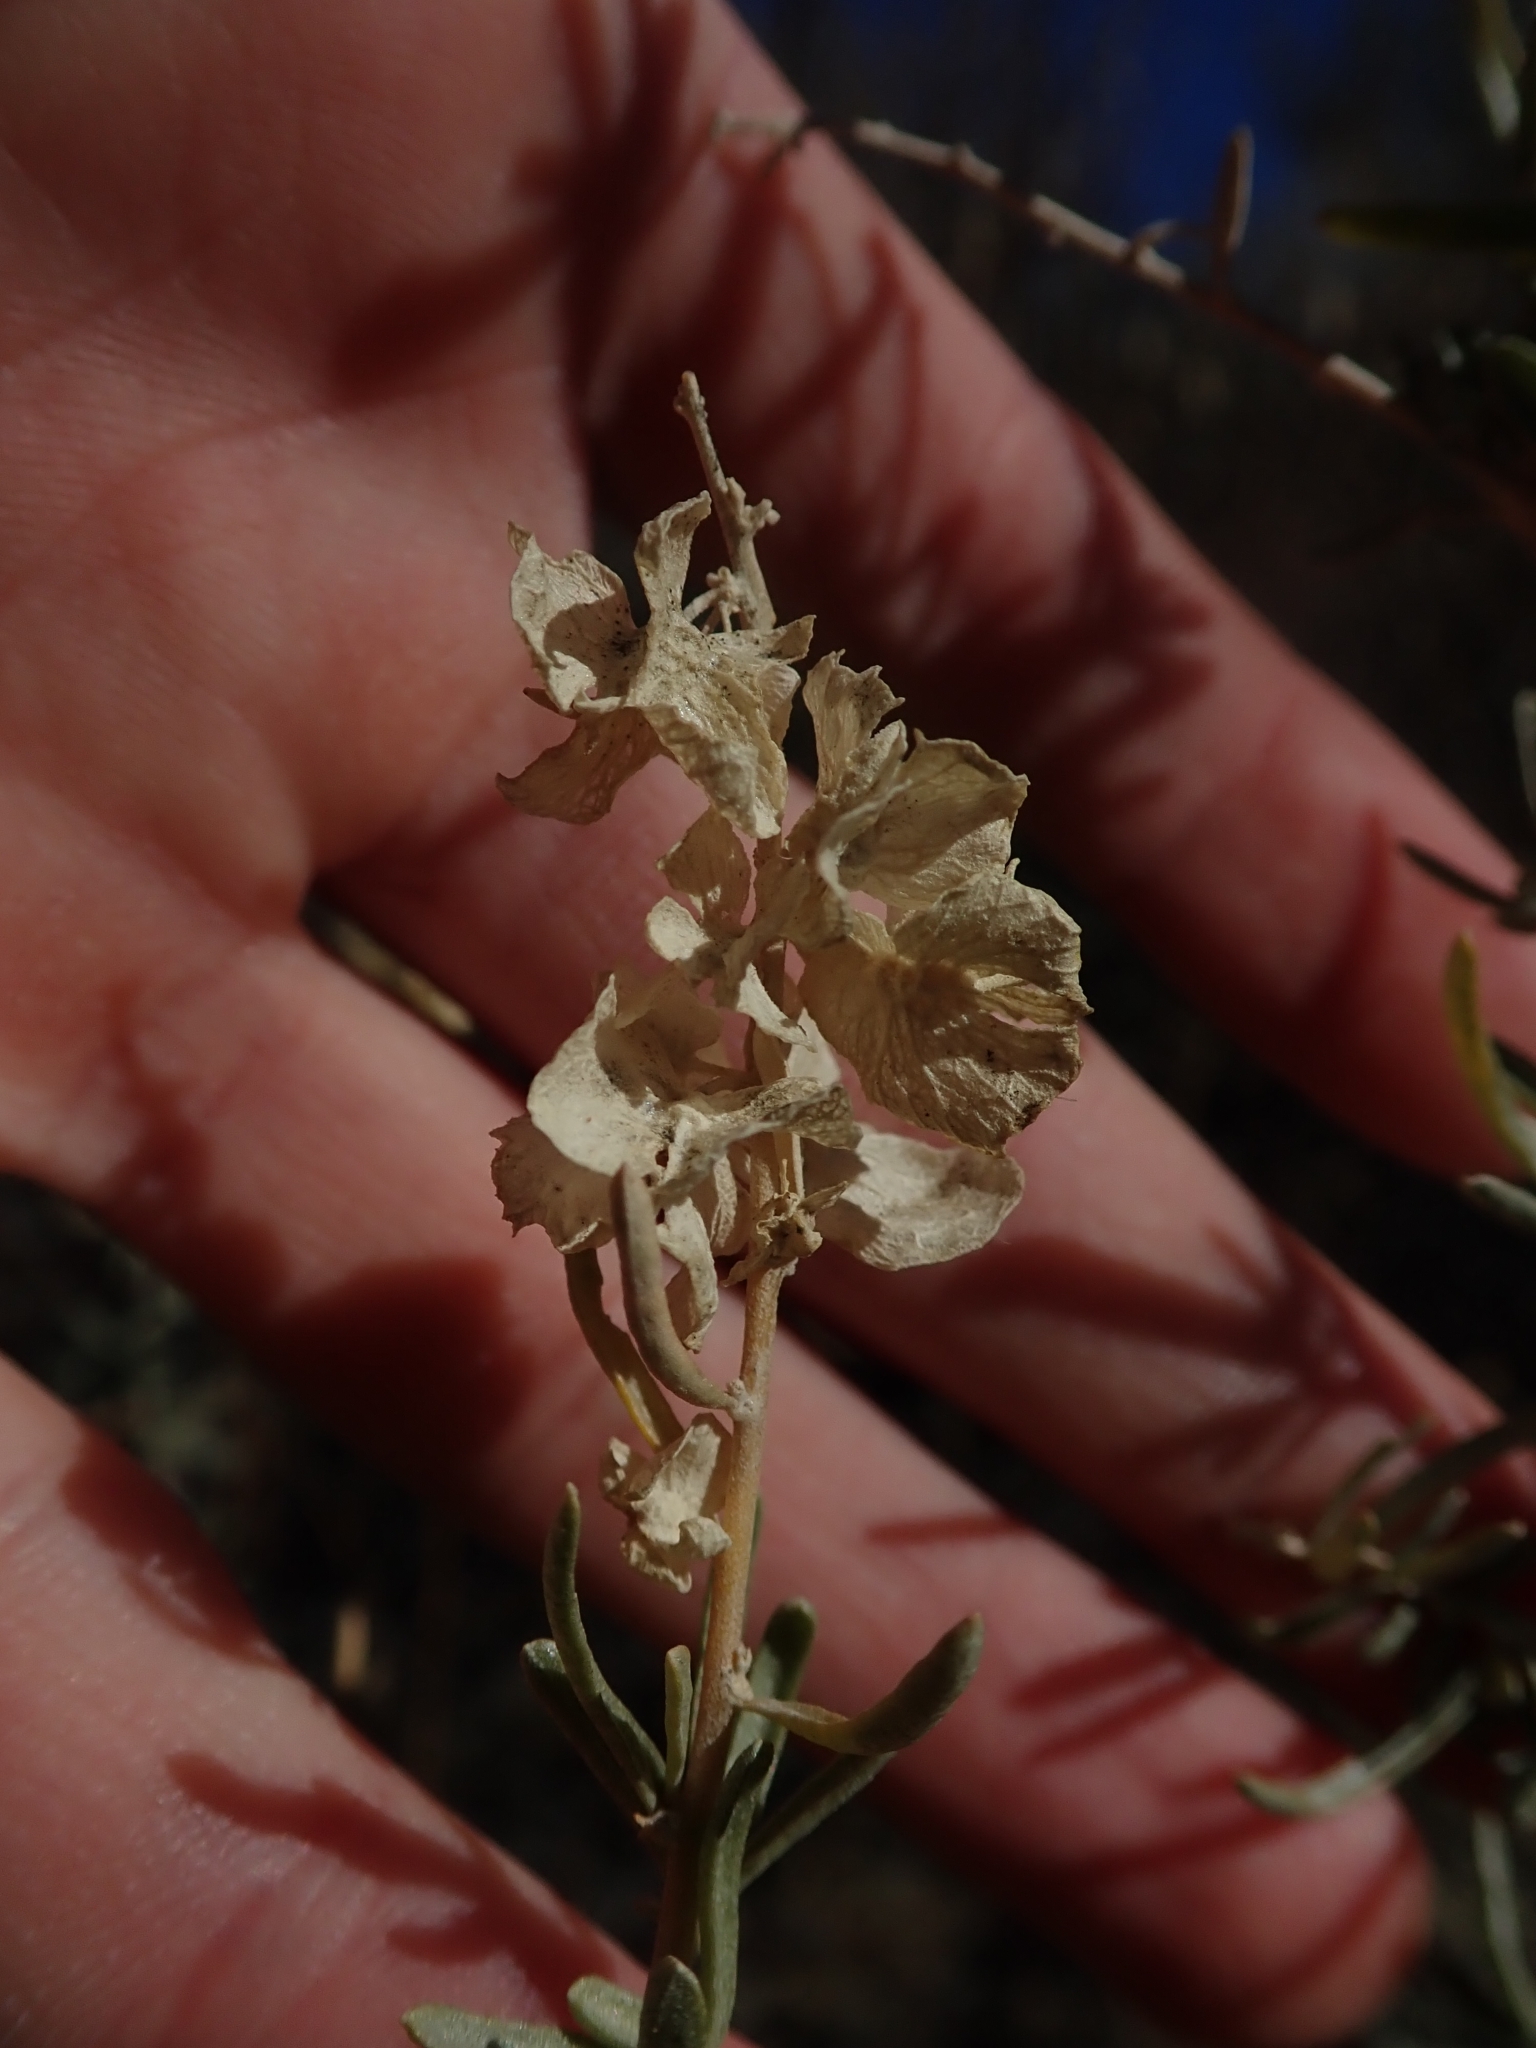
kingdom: Plantae
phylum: Tracheophyta
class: Magnoliopsida
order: Caryophyllales
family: Amaranthaceae
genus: Atriplex
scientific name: Atriplex canescens
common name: Four-wing saltbush
